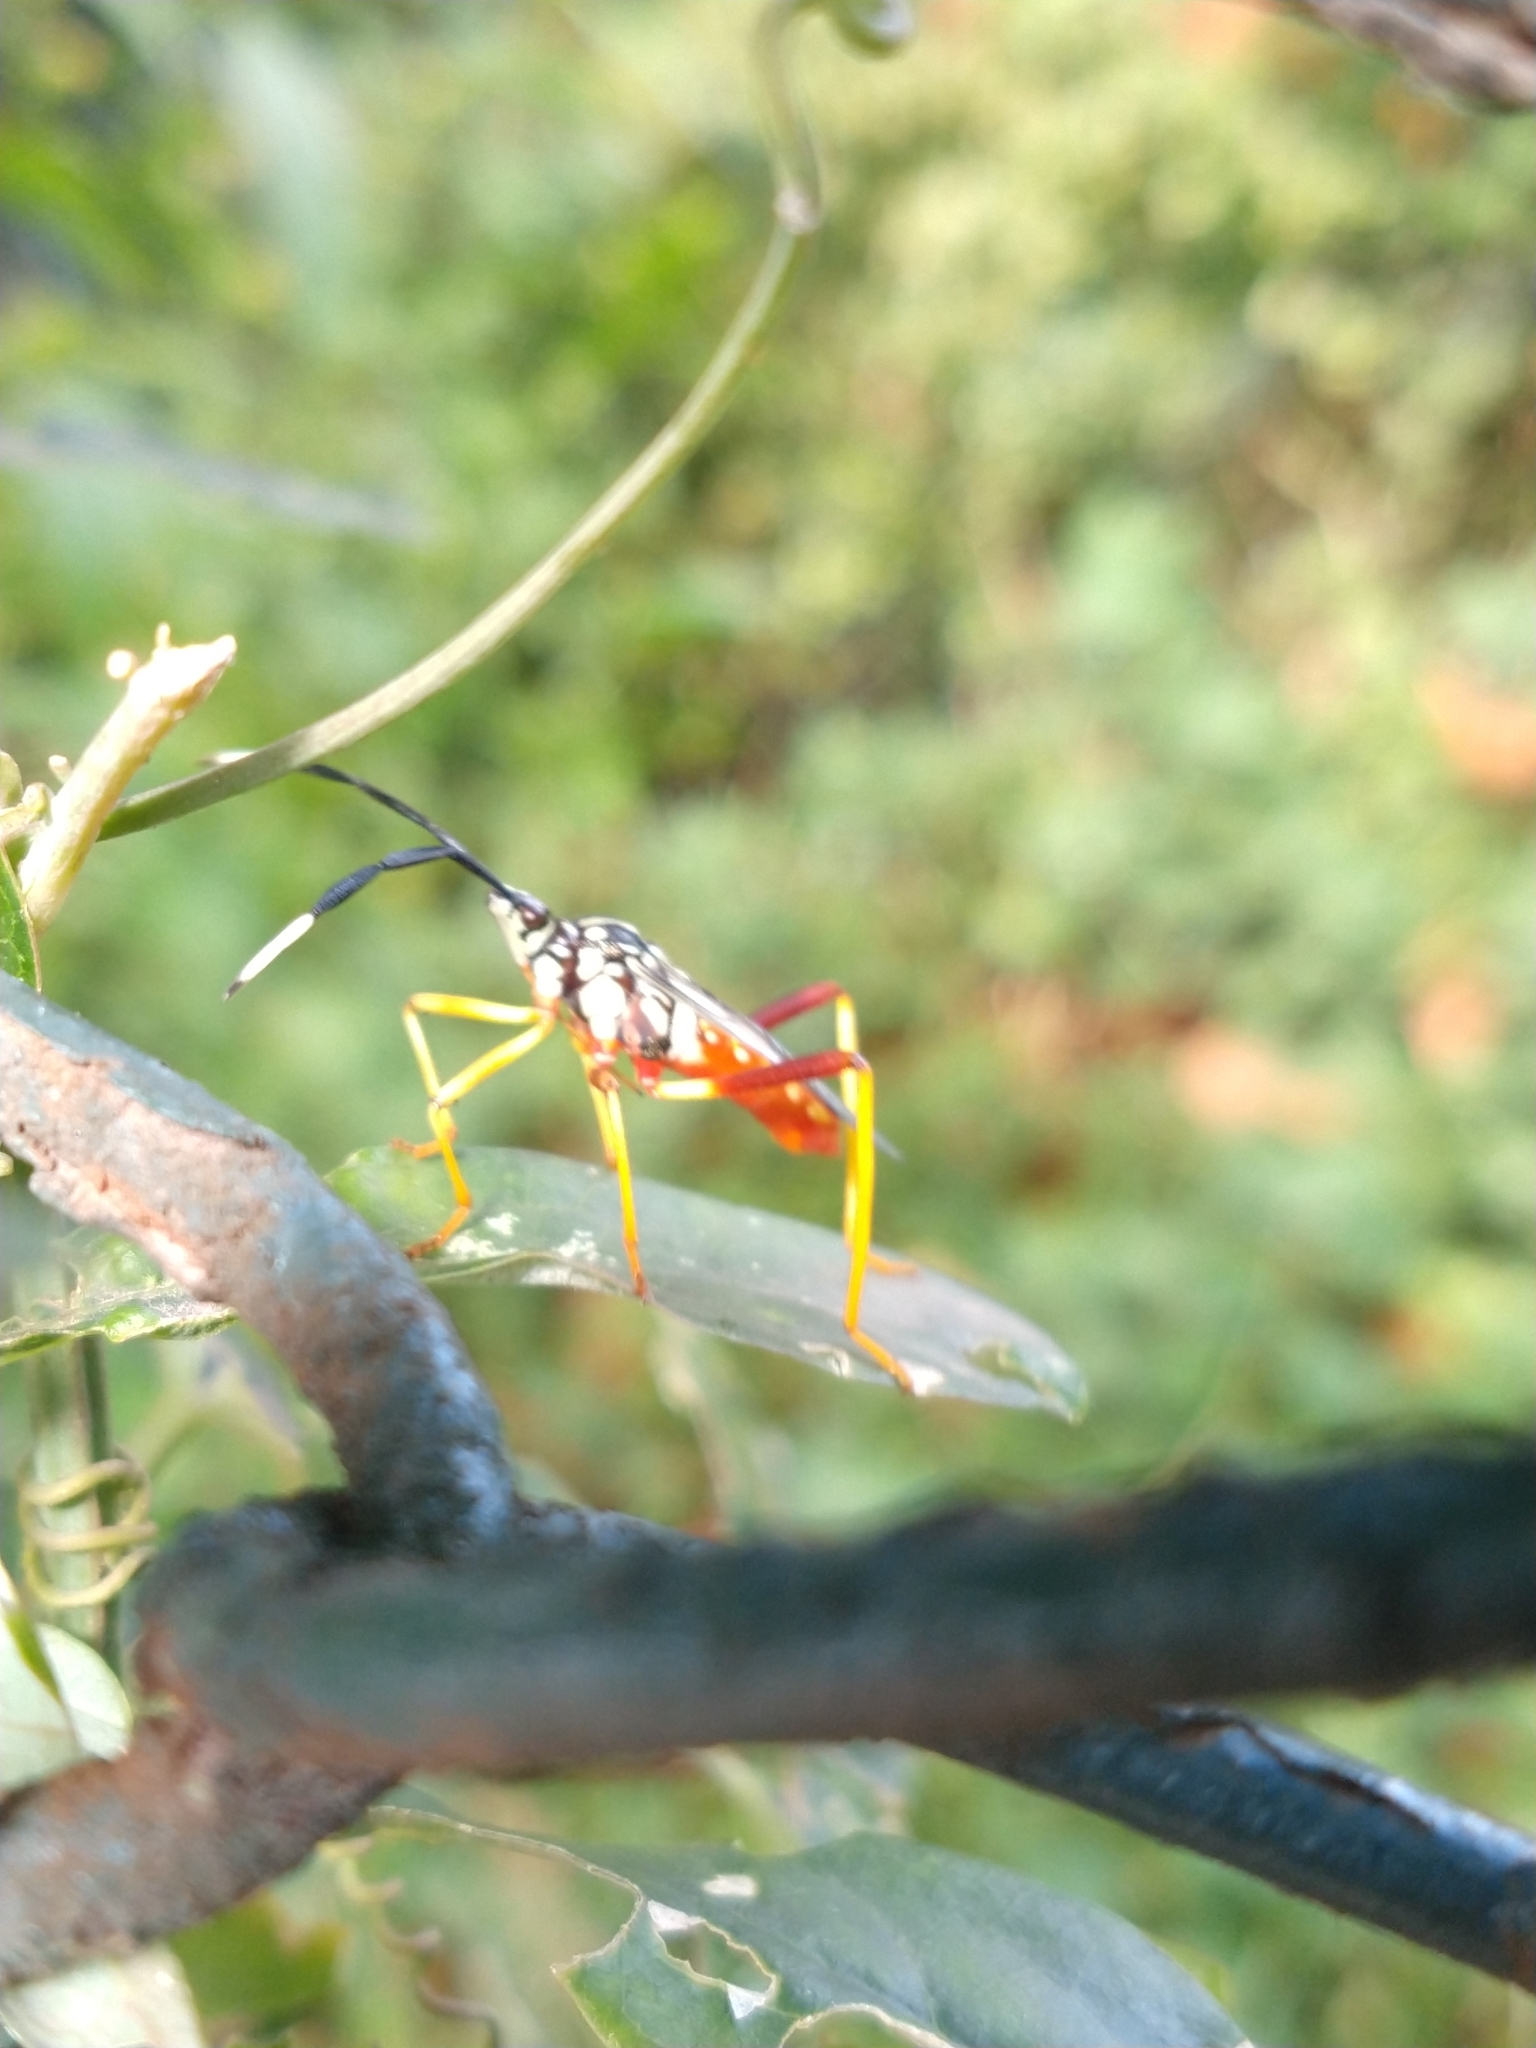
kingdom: Animalia
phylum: Arthropoda
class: Insecta
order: Hemiptera
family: Coreidae
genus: Holhymenia
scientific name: Holhymenia histrio
